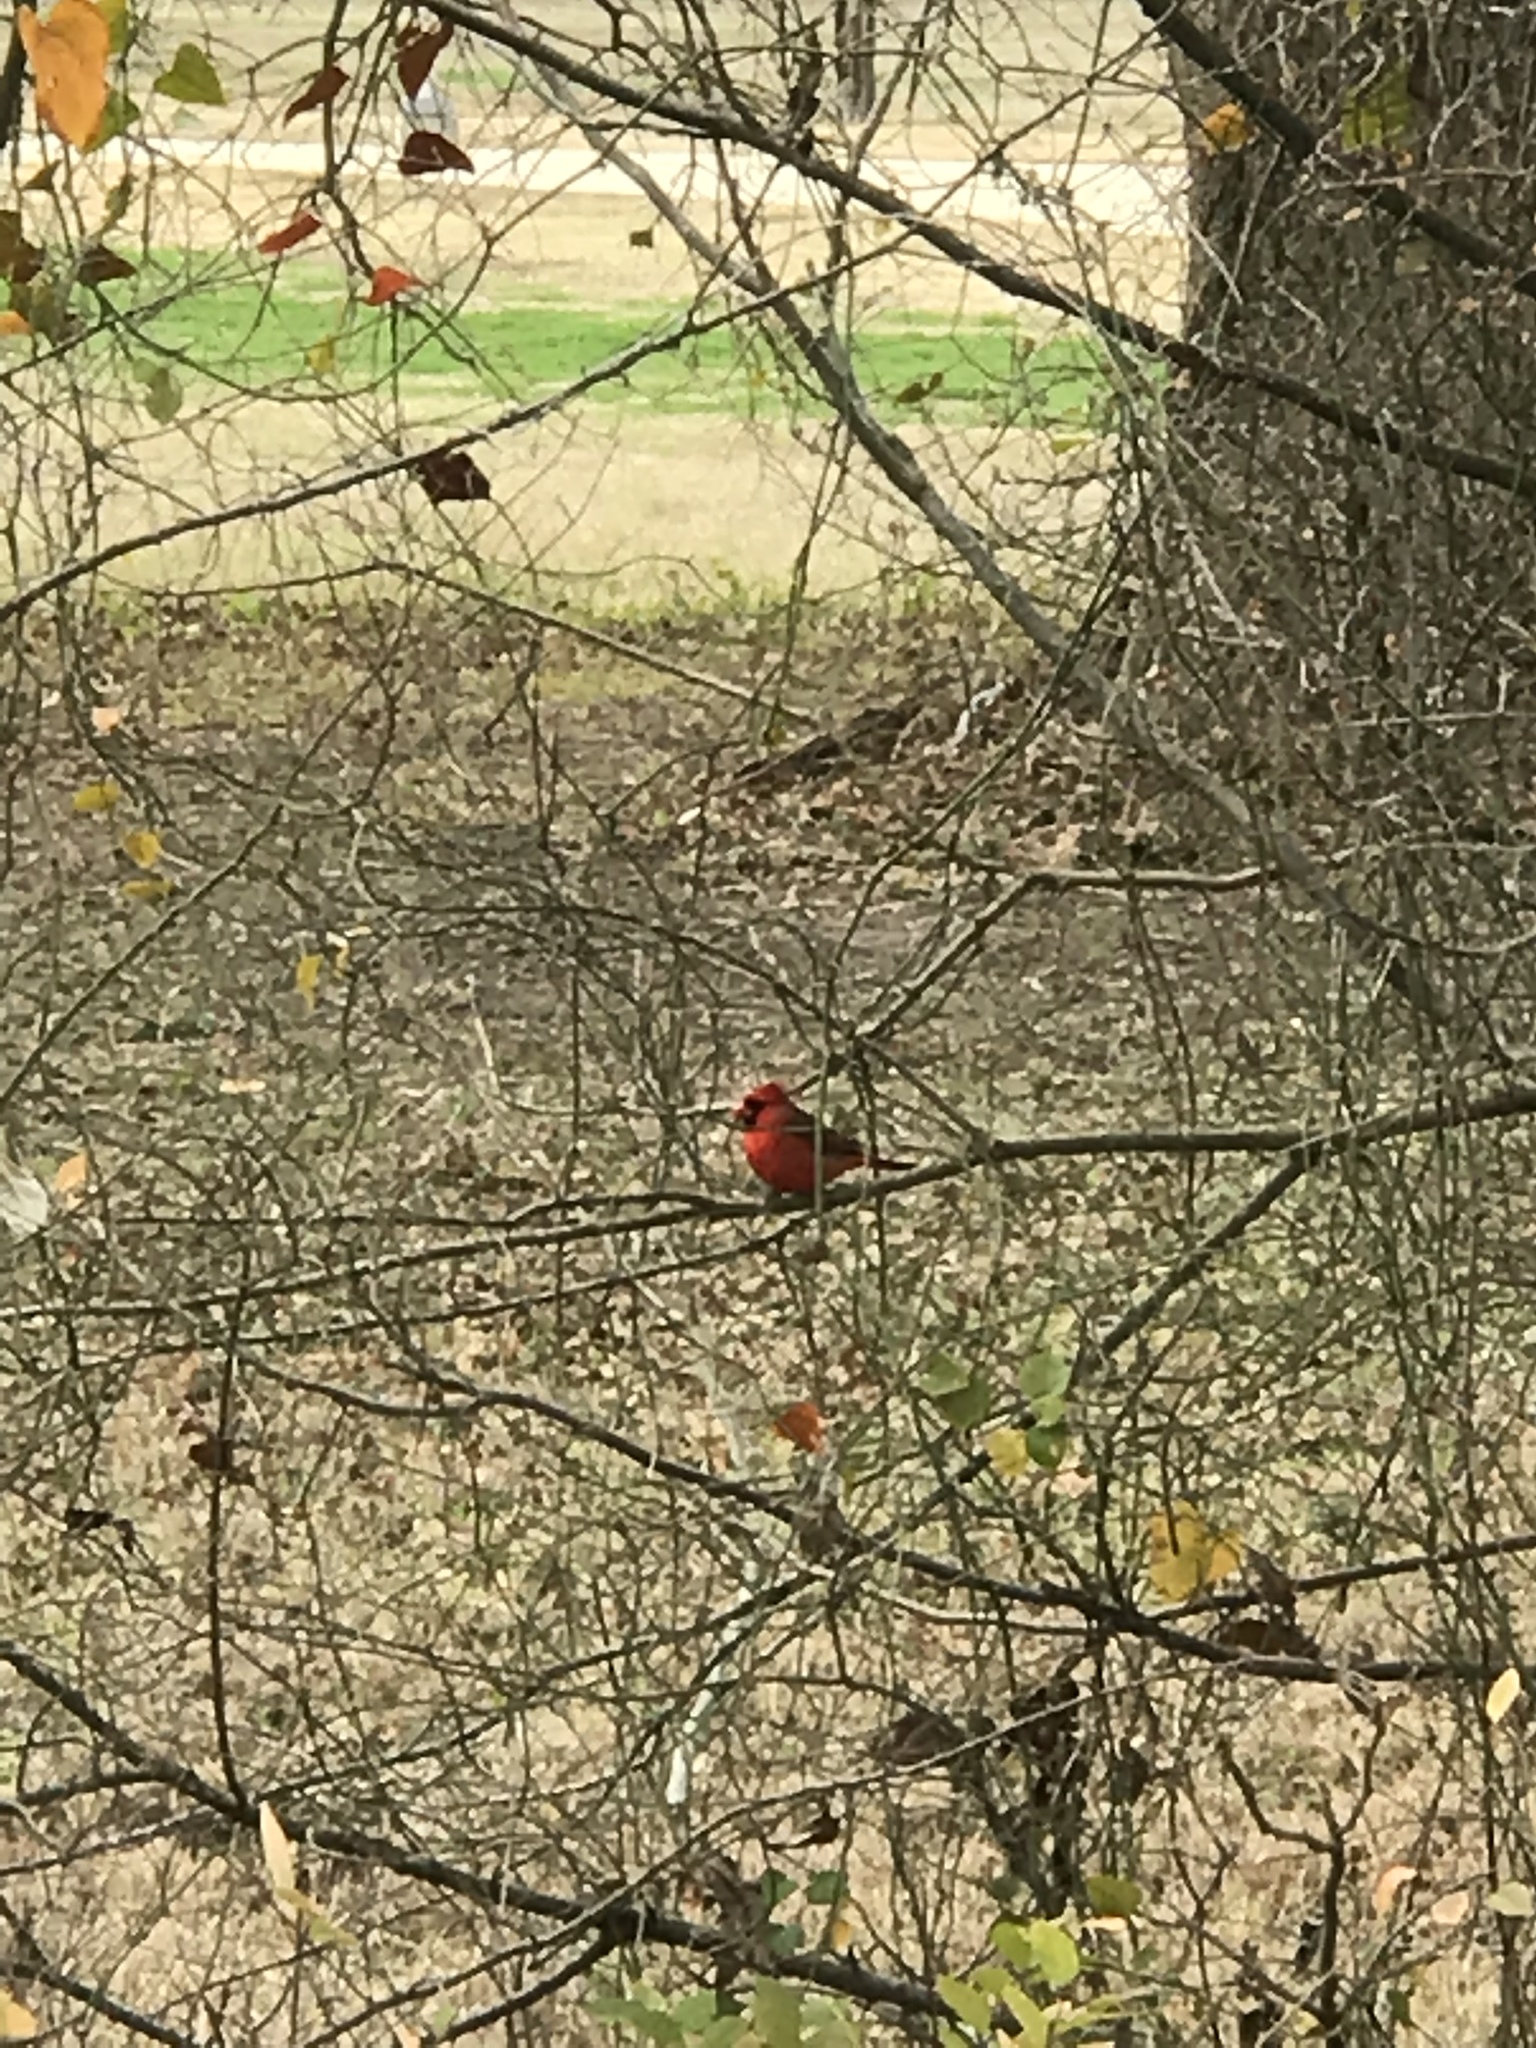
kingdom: Animalia
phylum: Chordata
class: Aves
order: Passeriformes
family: Cardinalidae
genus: Cardinalis
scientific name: Cardinalis cardinalis
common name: Northern cardinal
